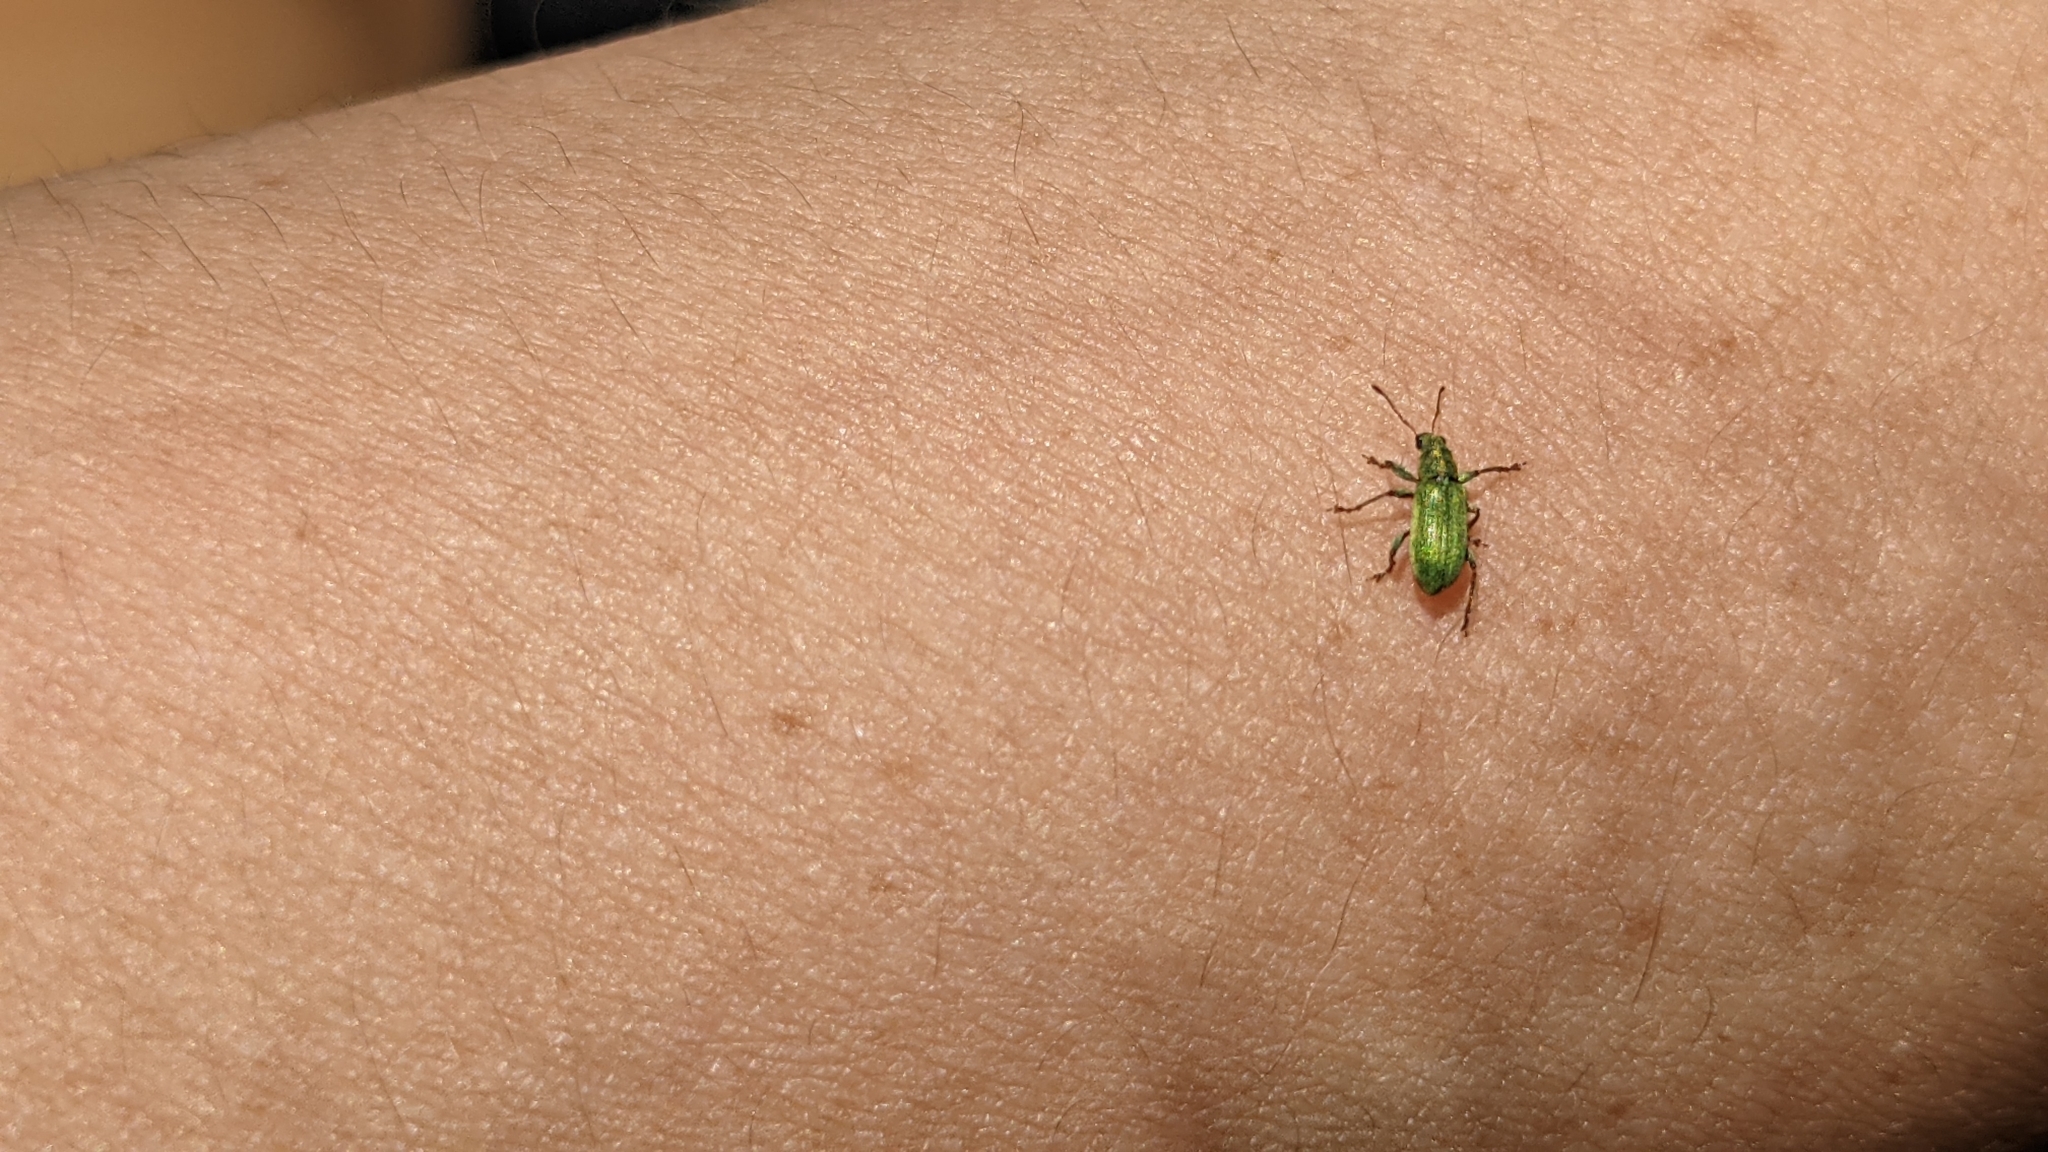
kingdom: Animalia
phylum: Arthropoda
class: Insecta
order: Coleoptera
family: Curculionidae
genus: Pachyrhinus
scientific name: Pachyrhinus lethierryi
